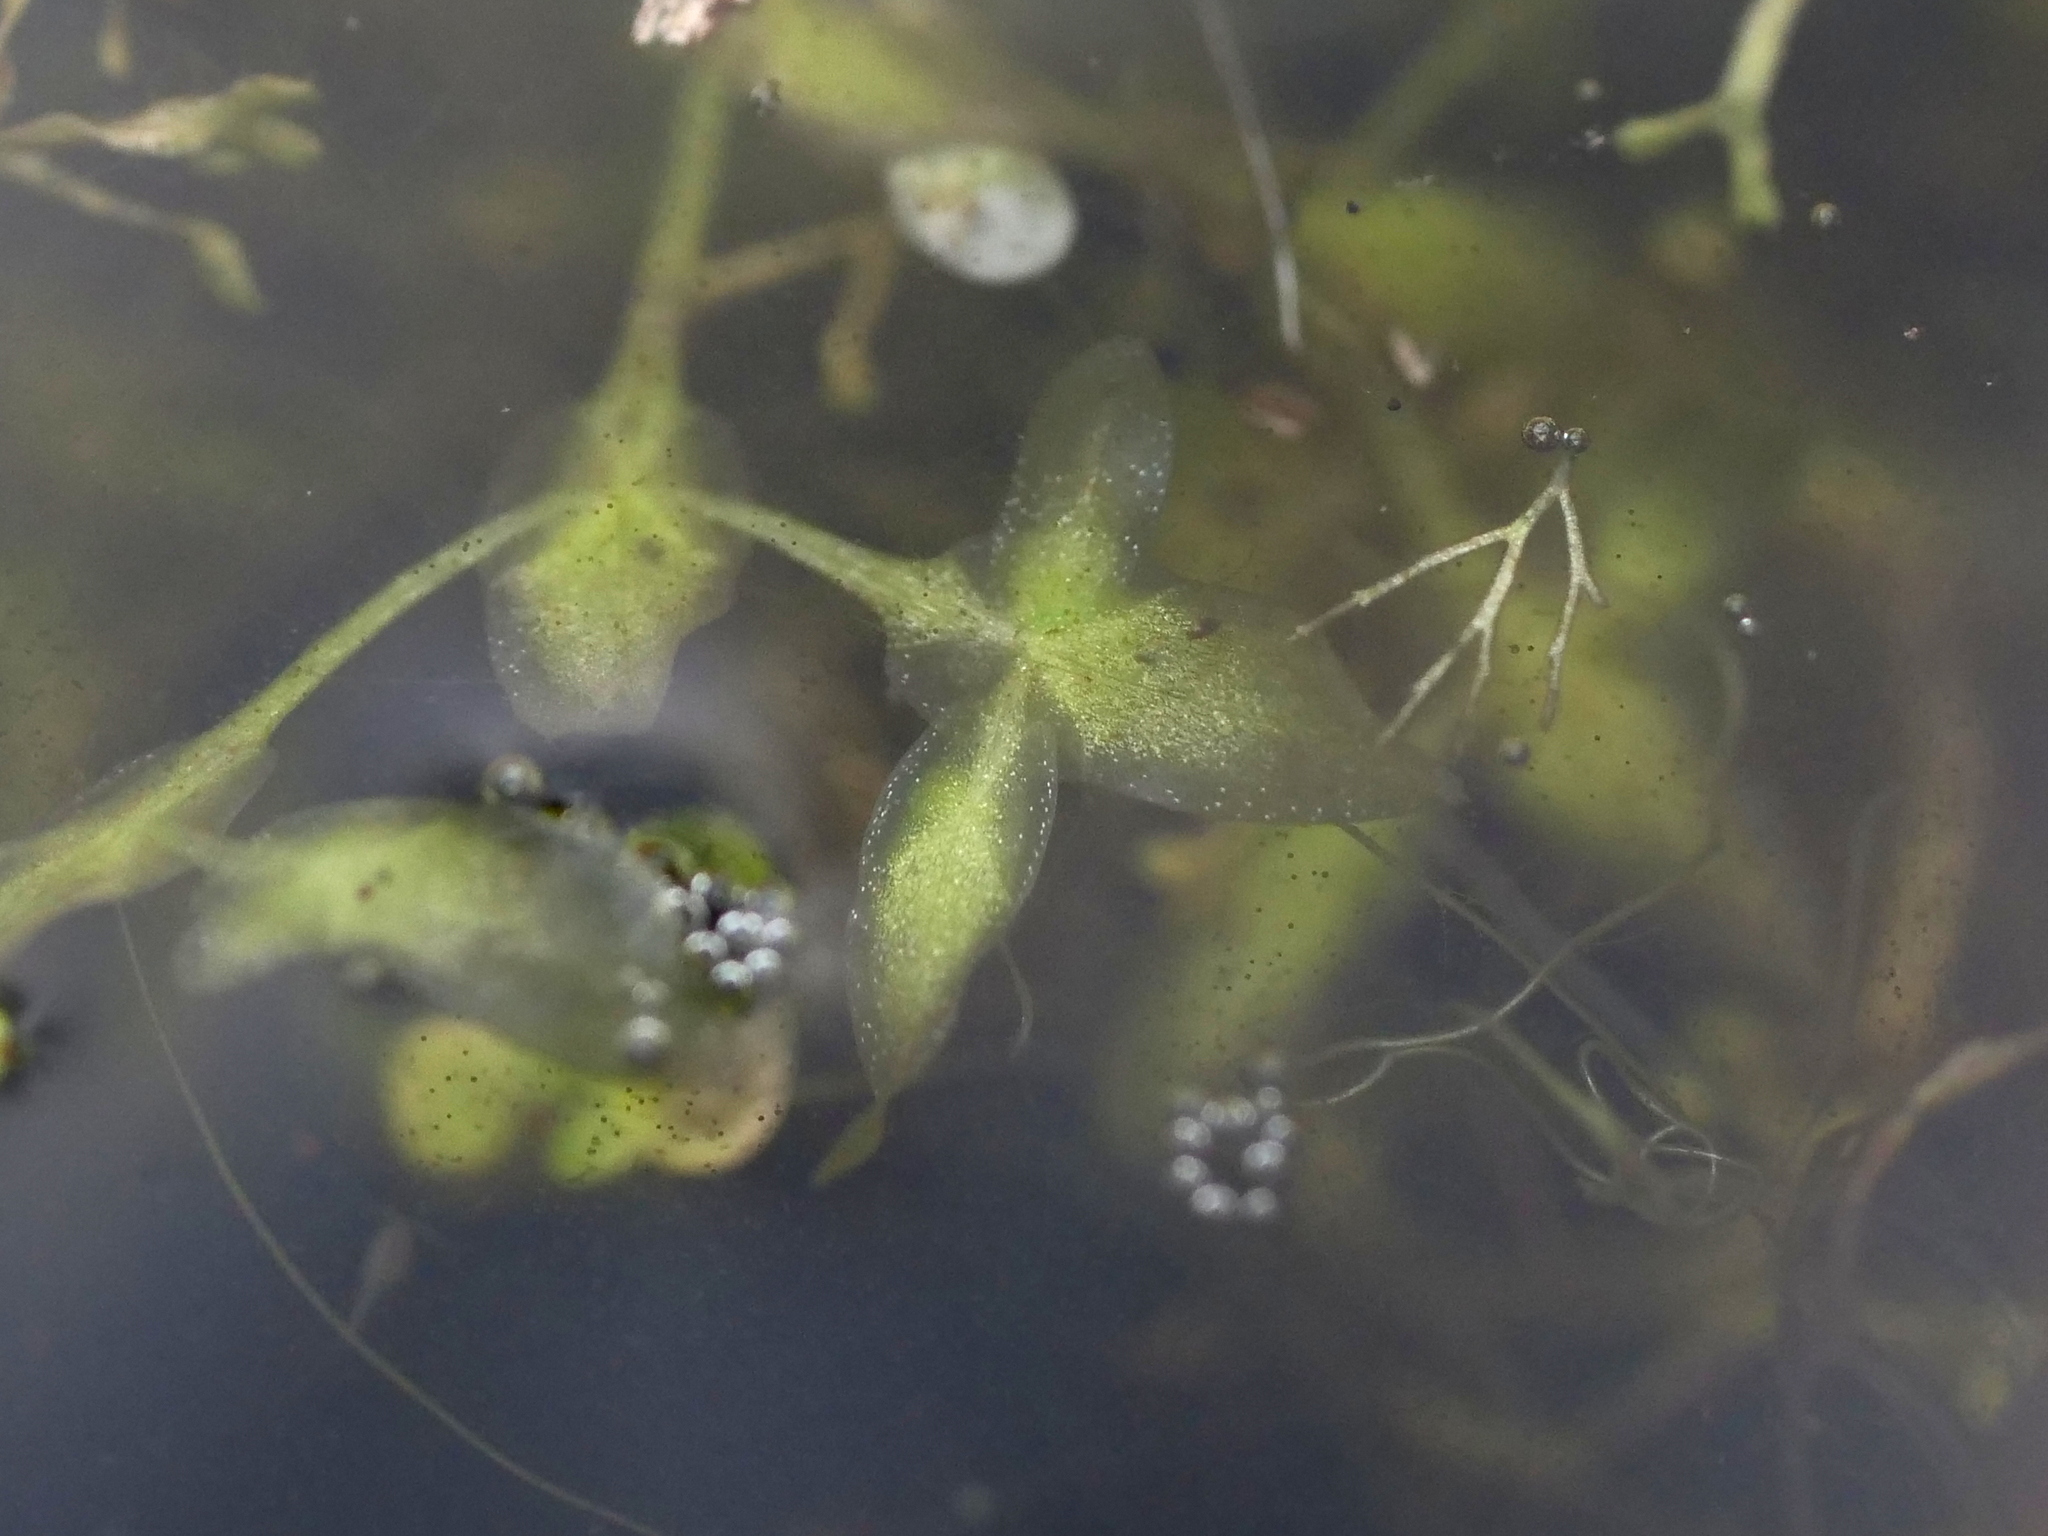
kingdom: Plantae
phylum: Tracheophyta
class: Liliopsida
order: Alismatales
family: Araceae
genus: Lemna
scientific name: Lemna trisulca
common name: Ivy-leaved duckweed
